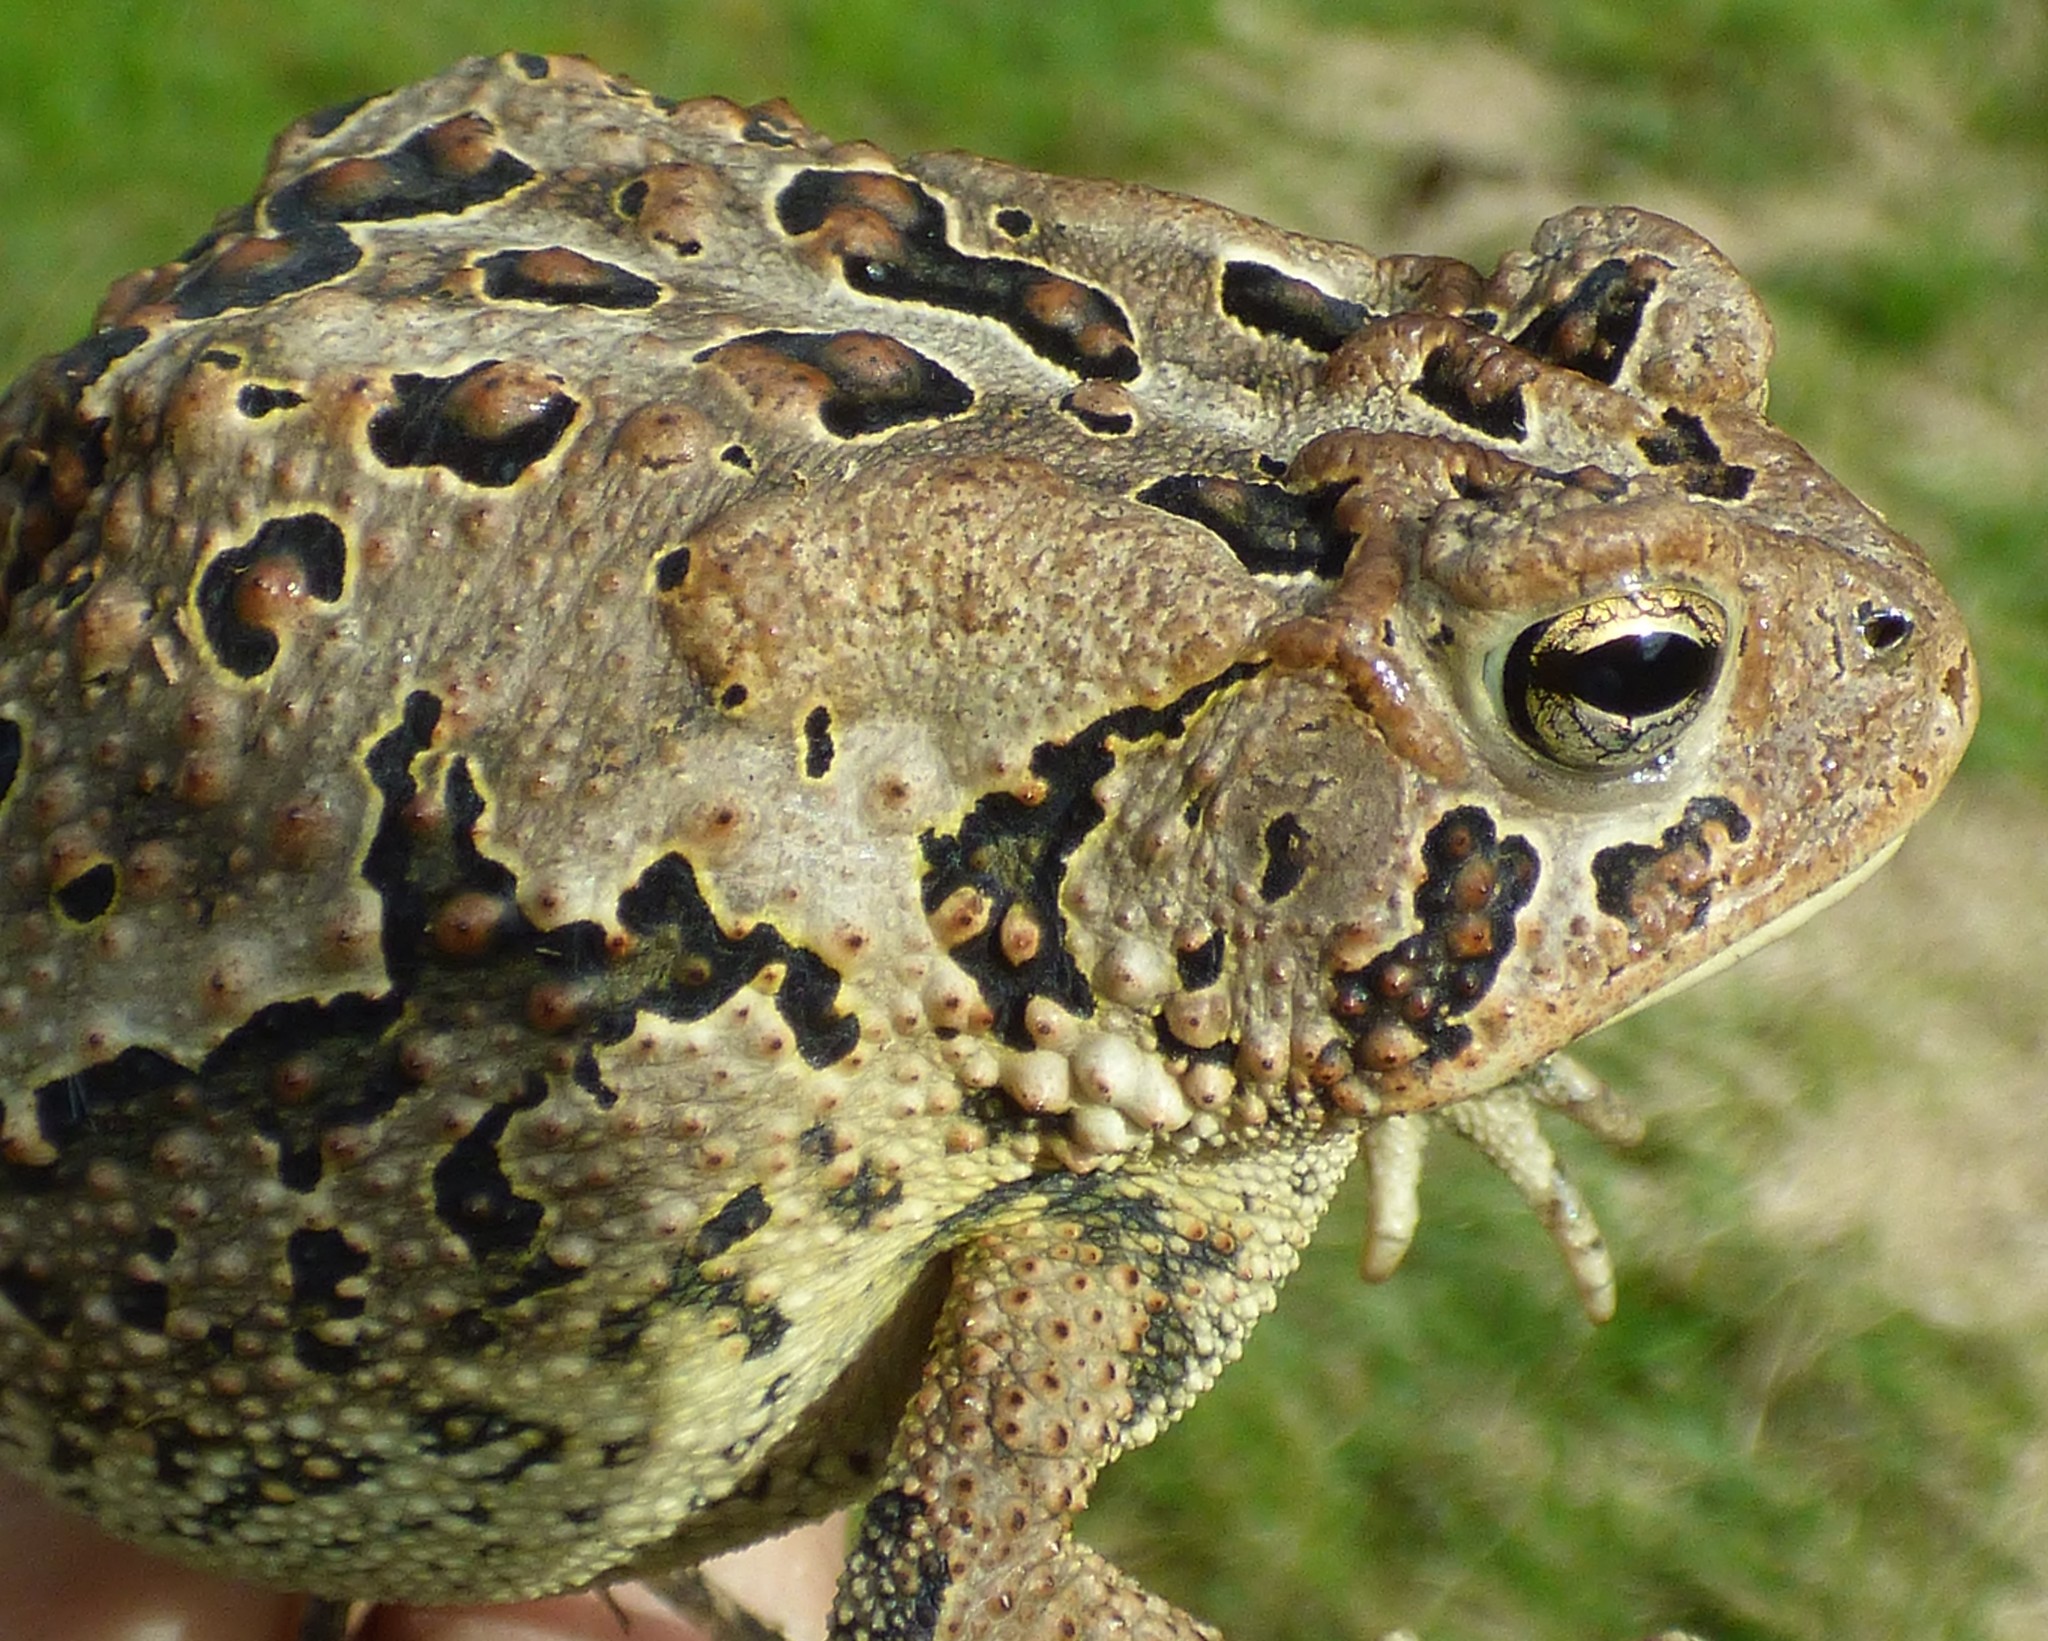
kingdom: Animalia
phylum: Chordata
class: Amphibia
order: Anura
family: Bufonidae
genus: Anaxyrus
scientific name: Anaxyrus terrestris
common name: Southern toad
